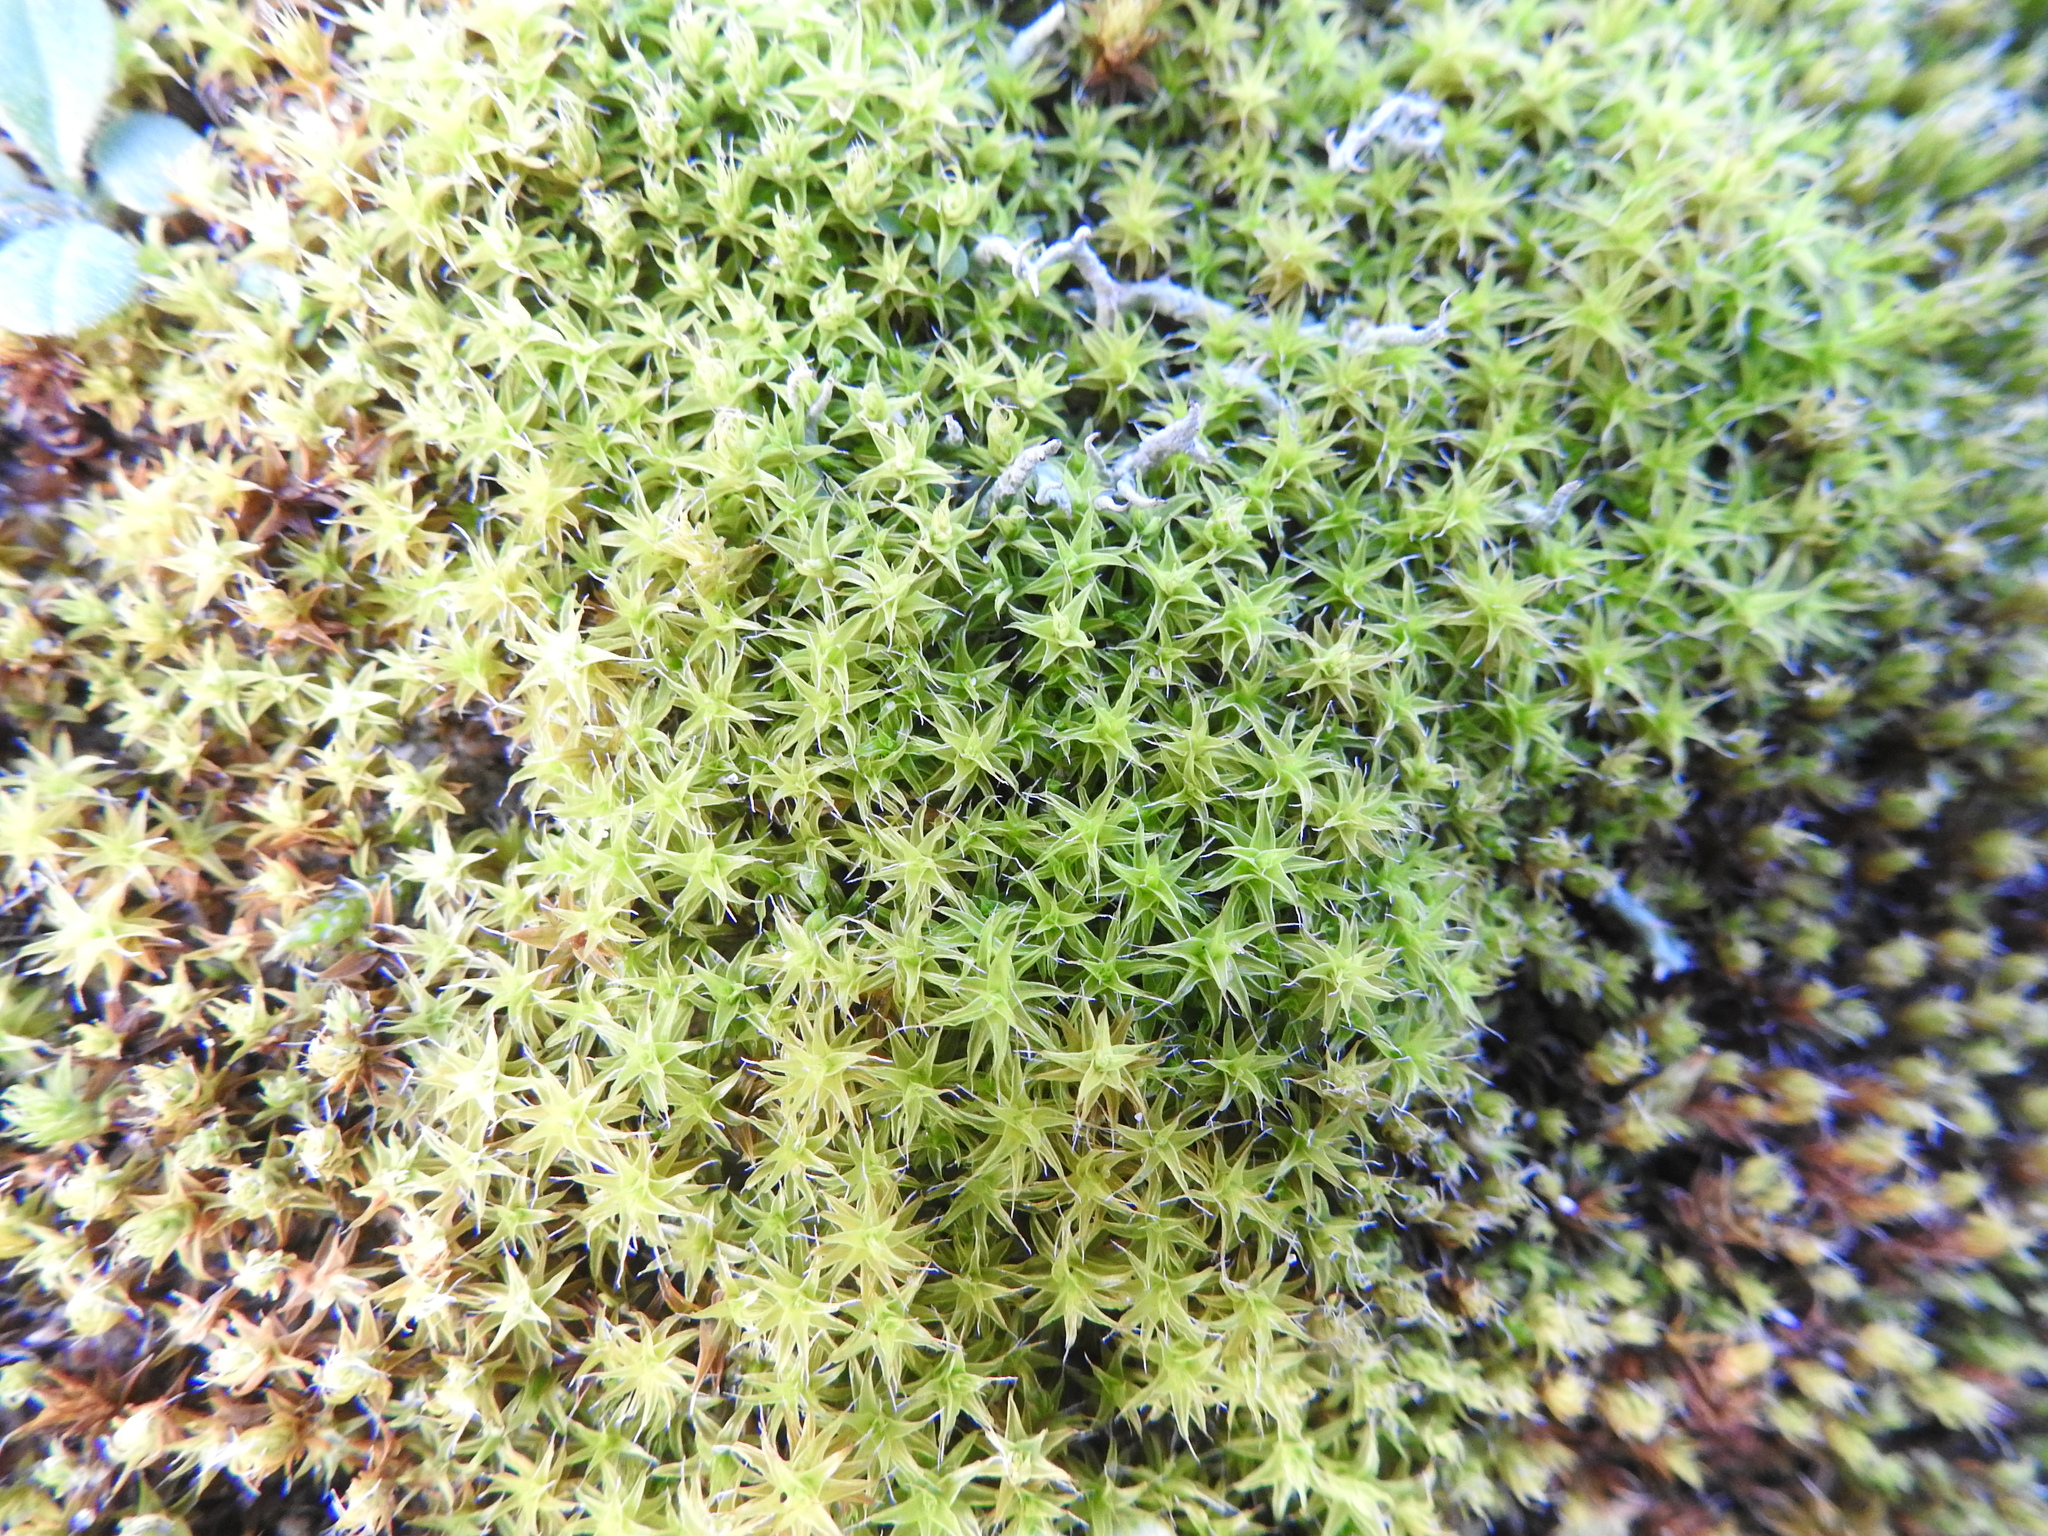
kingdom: Plantae
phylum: Bryophyta
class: Bryopsida
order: Pottiales
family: Pottiaceae
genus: Syntrichia
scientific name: Syntrichia ruralis
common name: Sidewalk screw moss
